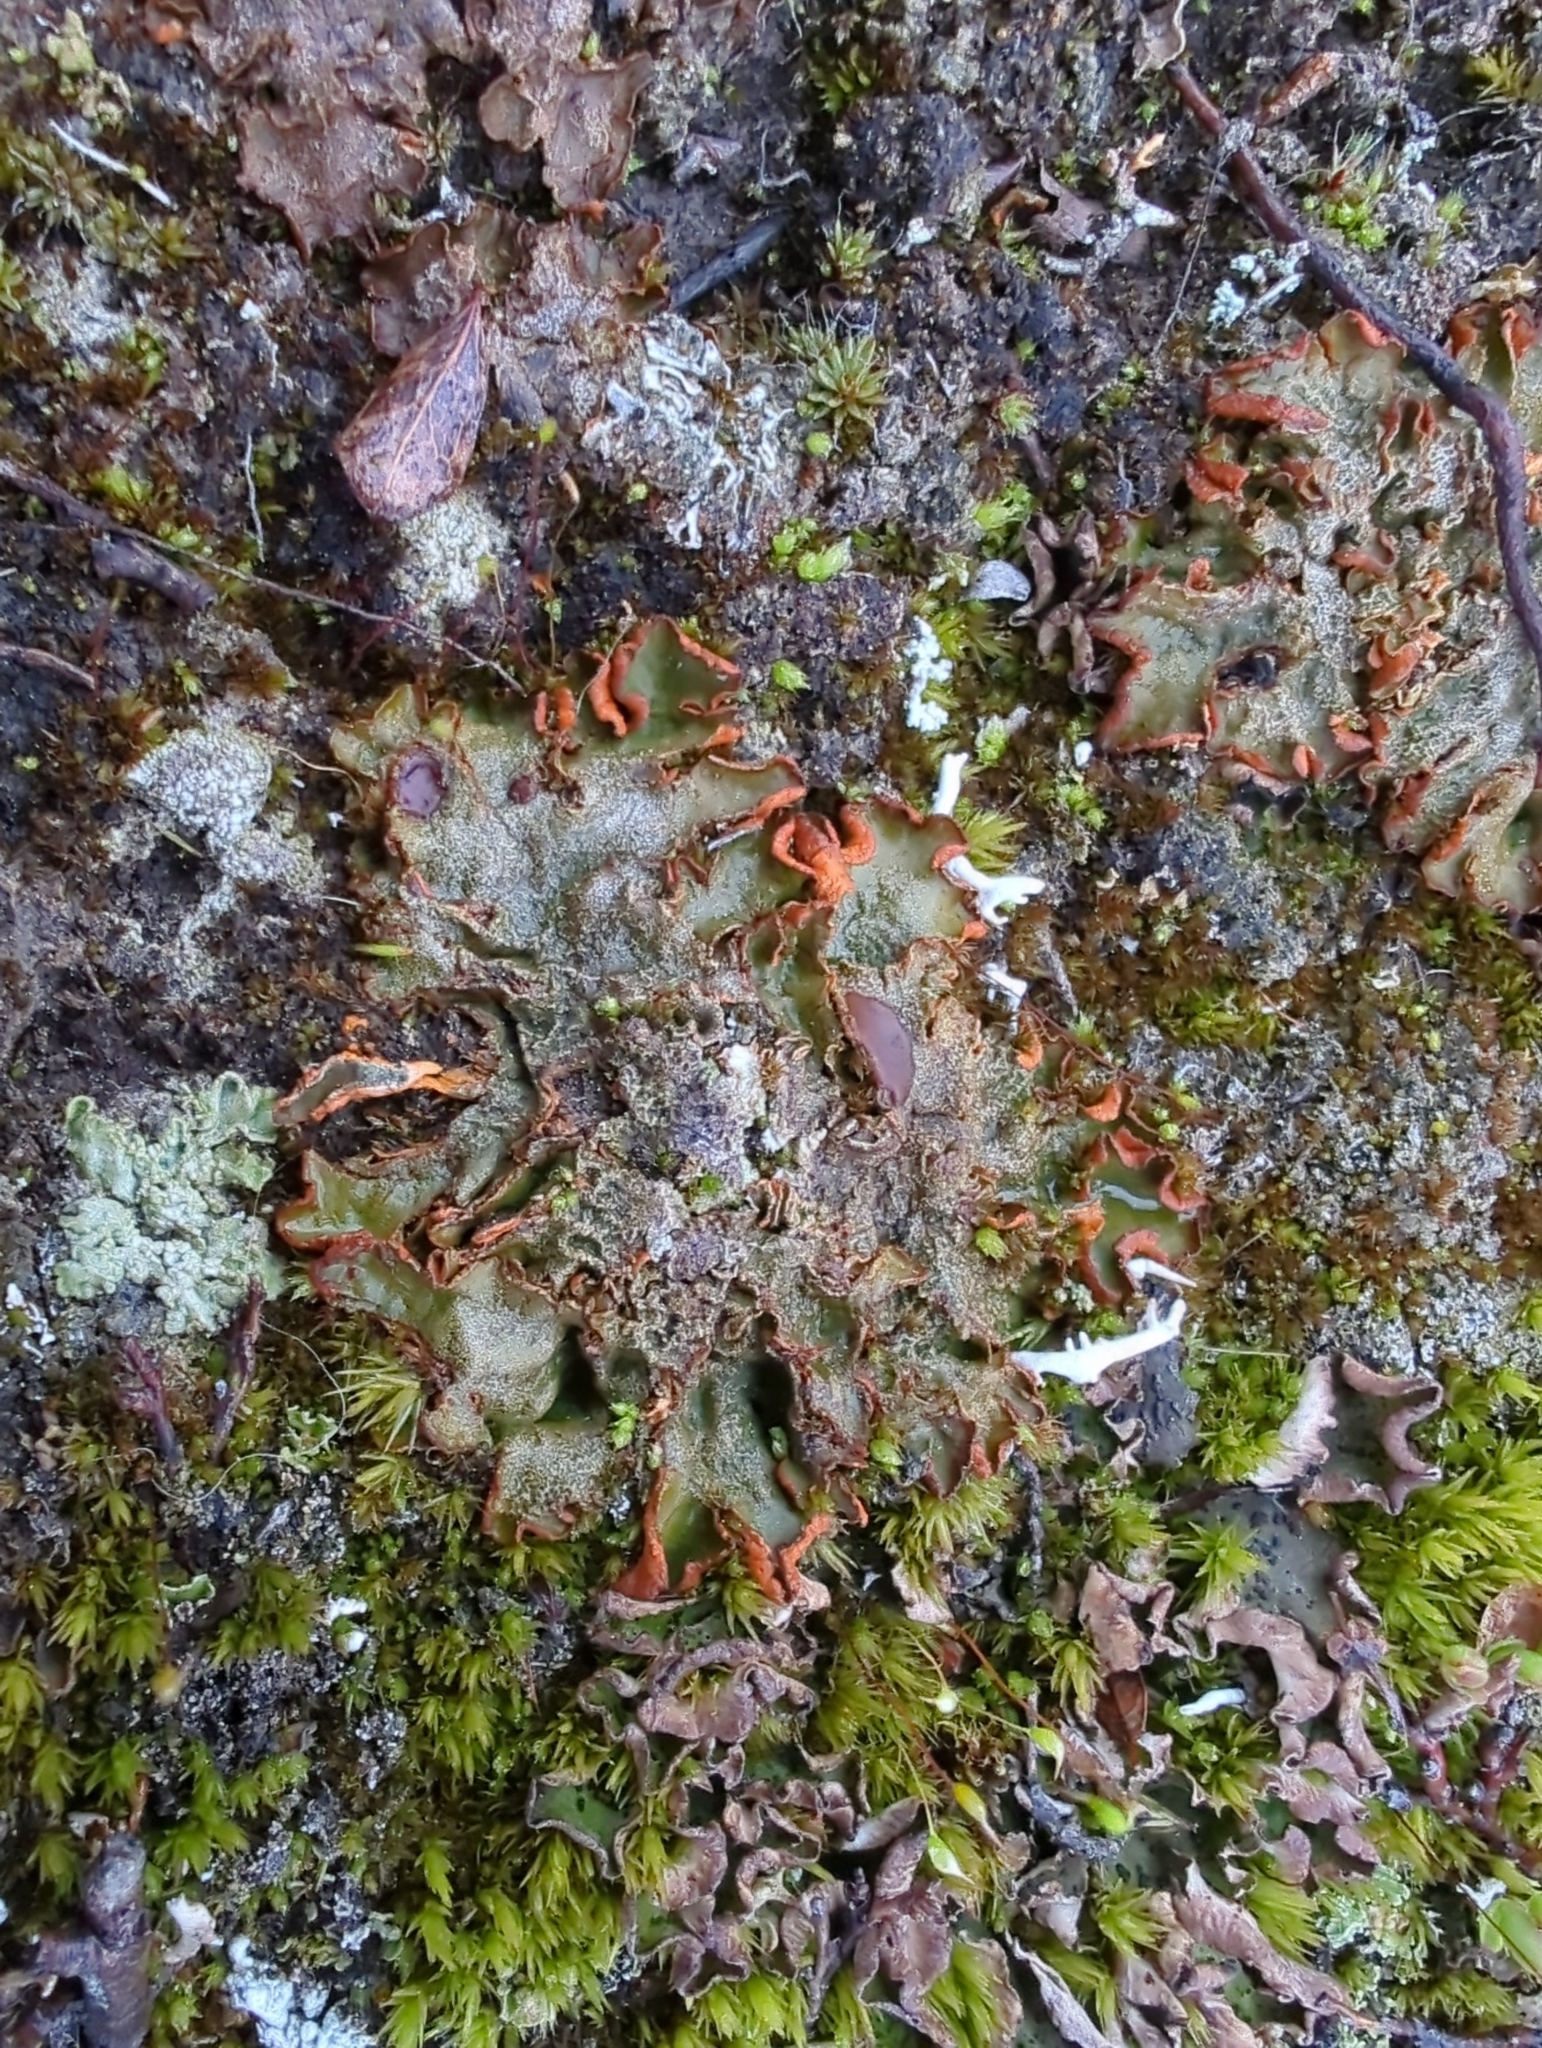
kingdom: Fungi
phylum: Ascomycota
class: Lecanoromycetes
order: Peltigerales
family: Peltigeraceae
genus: Solorina
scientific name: Solorina crocea
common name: Mountain saffron
